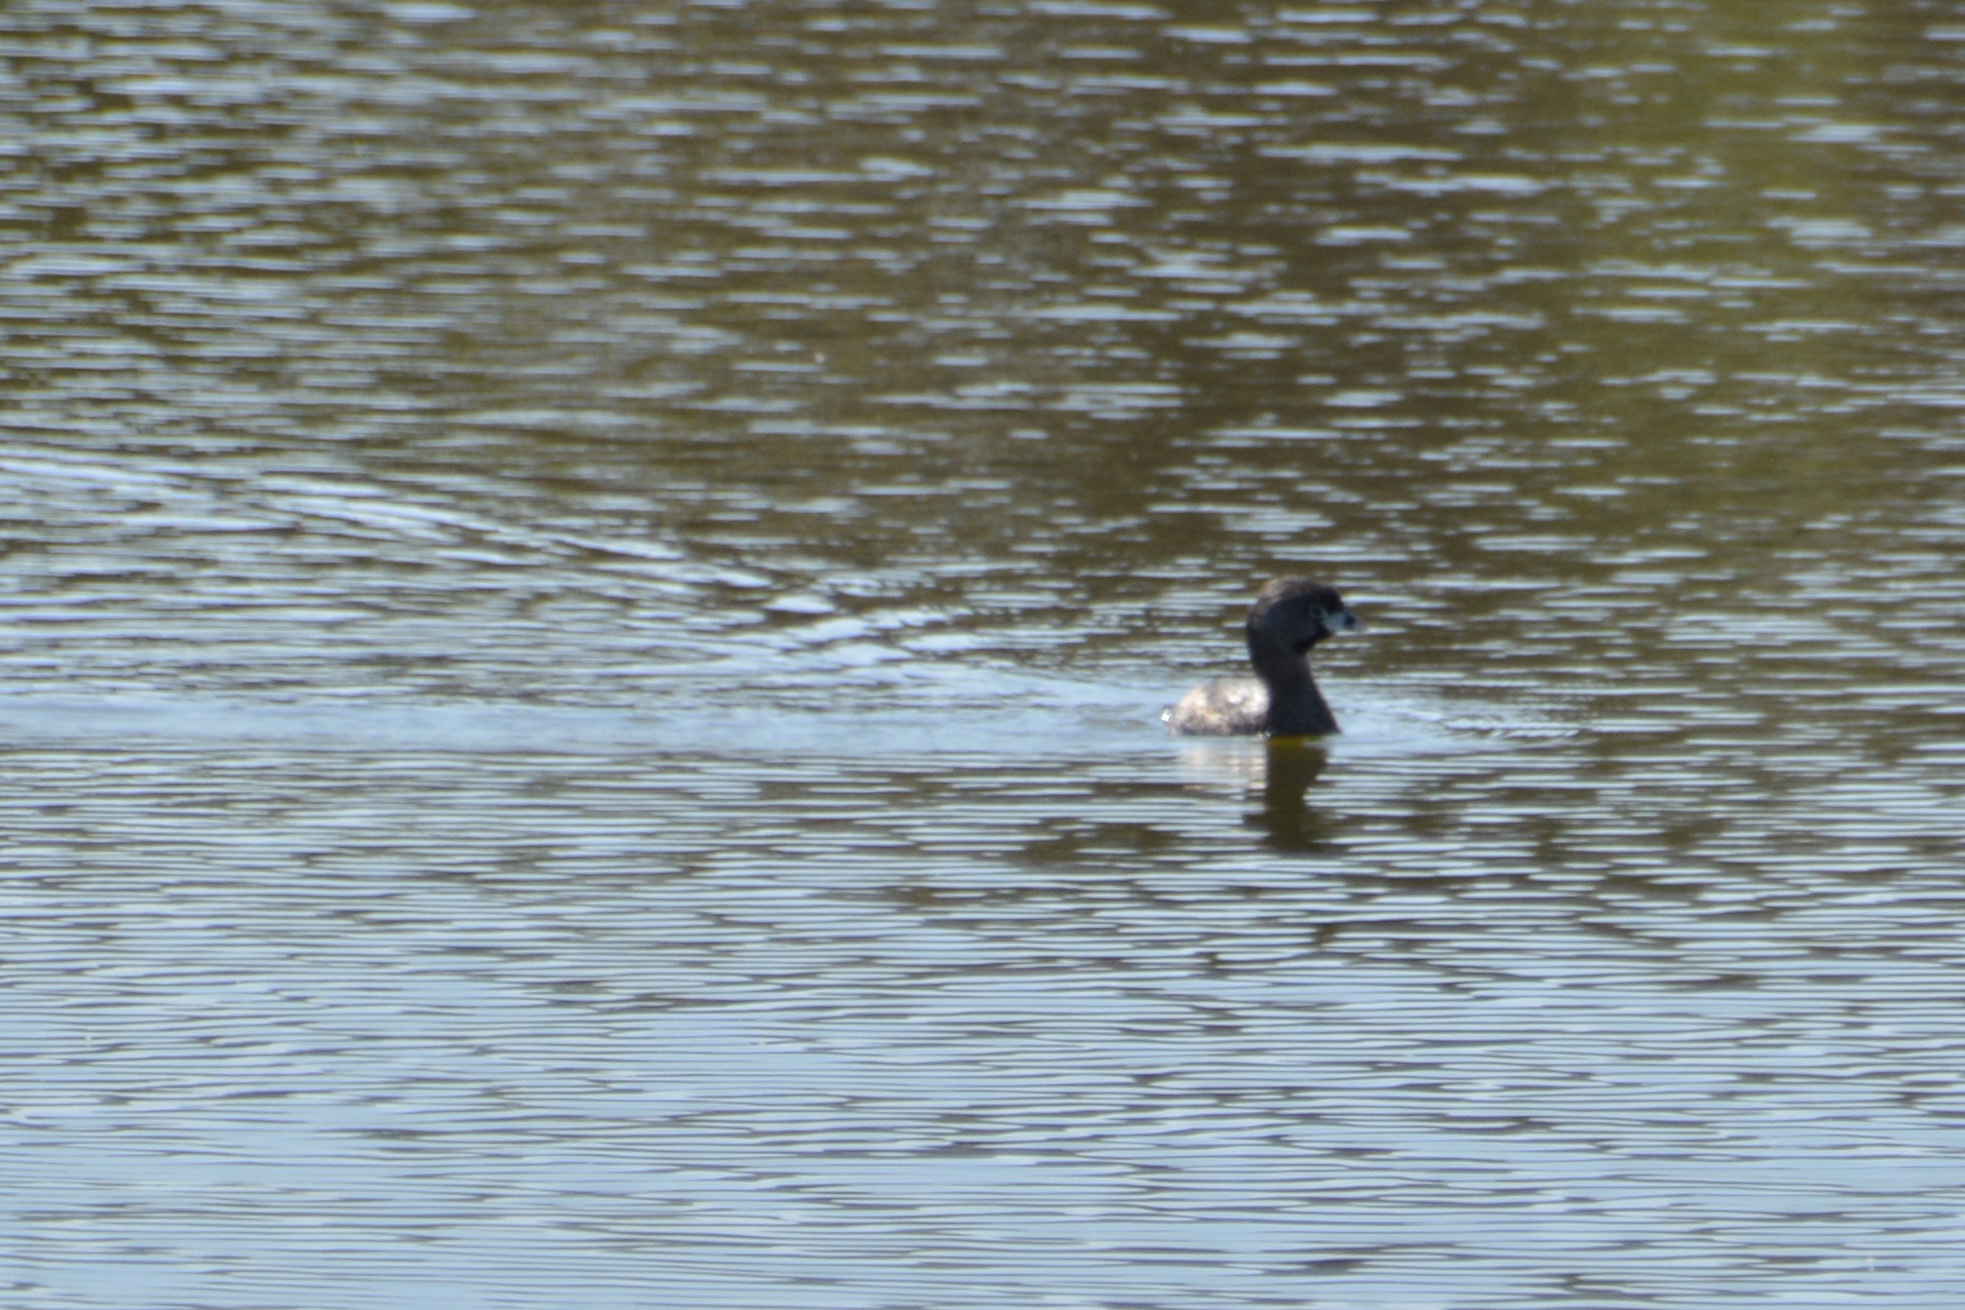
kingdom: Animalia
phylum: Chordata
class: Aves
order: Podicipediformes
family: Podicipedidae
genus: Podilymbus
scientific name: Podilymbus podiceps
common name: Pied-billed grebe
